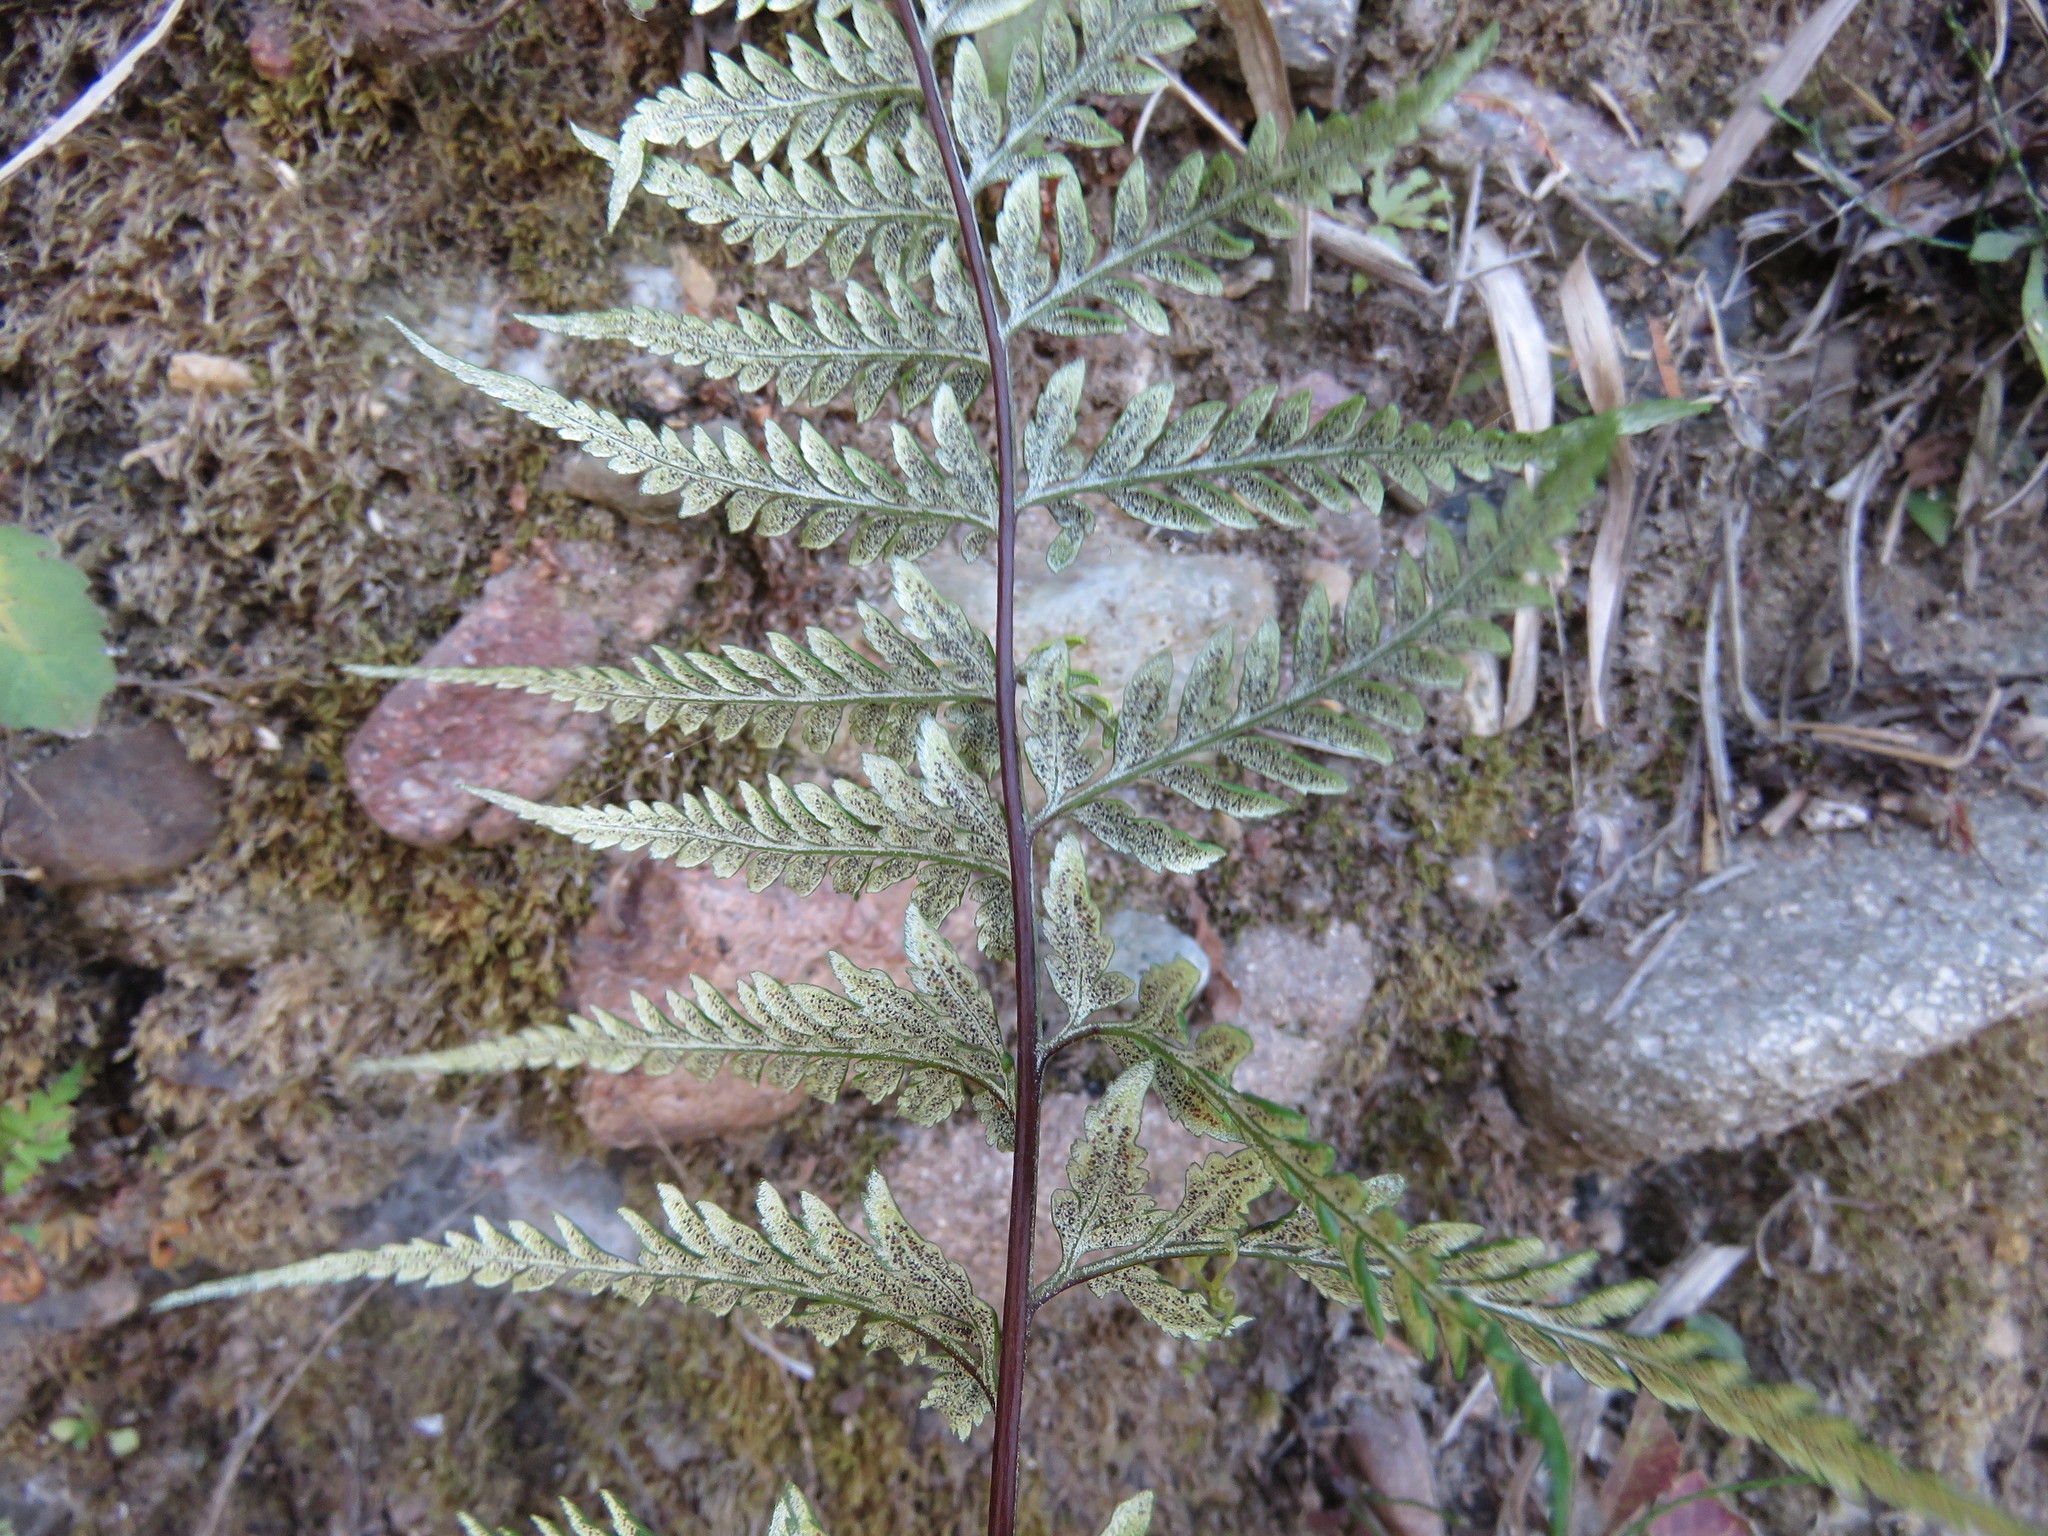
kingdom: Plantae
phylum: Tracheophyta
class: Polypodiopsida
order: Polypodiales
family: Pteridaceae
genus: Pityrogramma
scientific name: Pityrogramma calomelanos
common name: Dixie silverback fern
